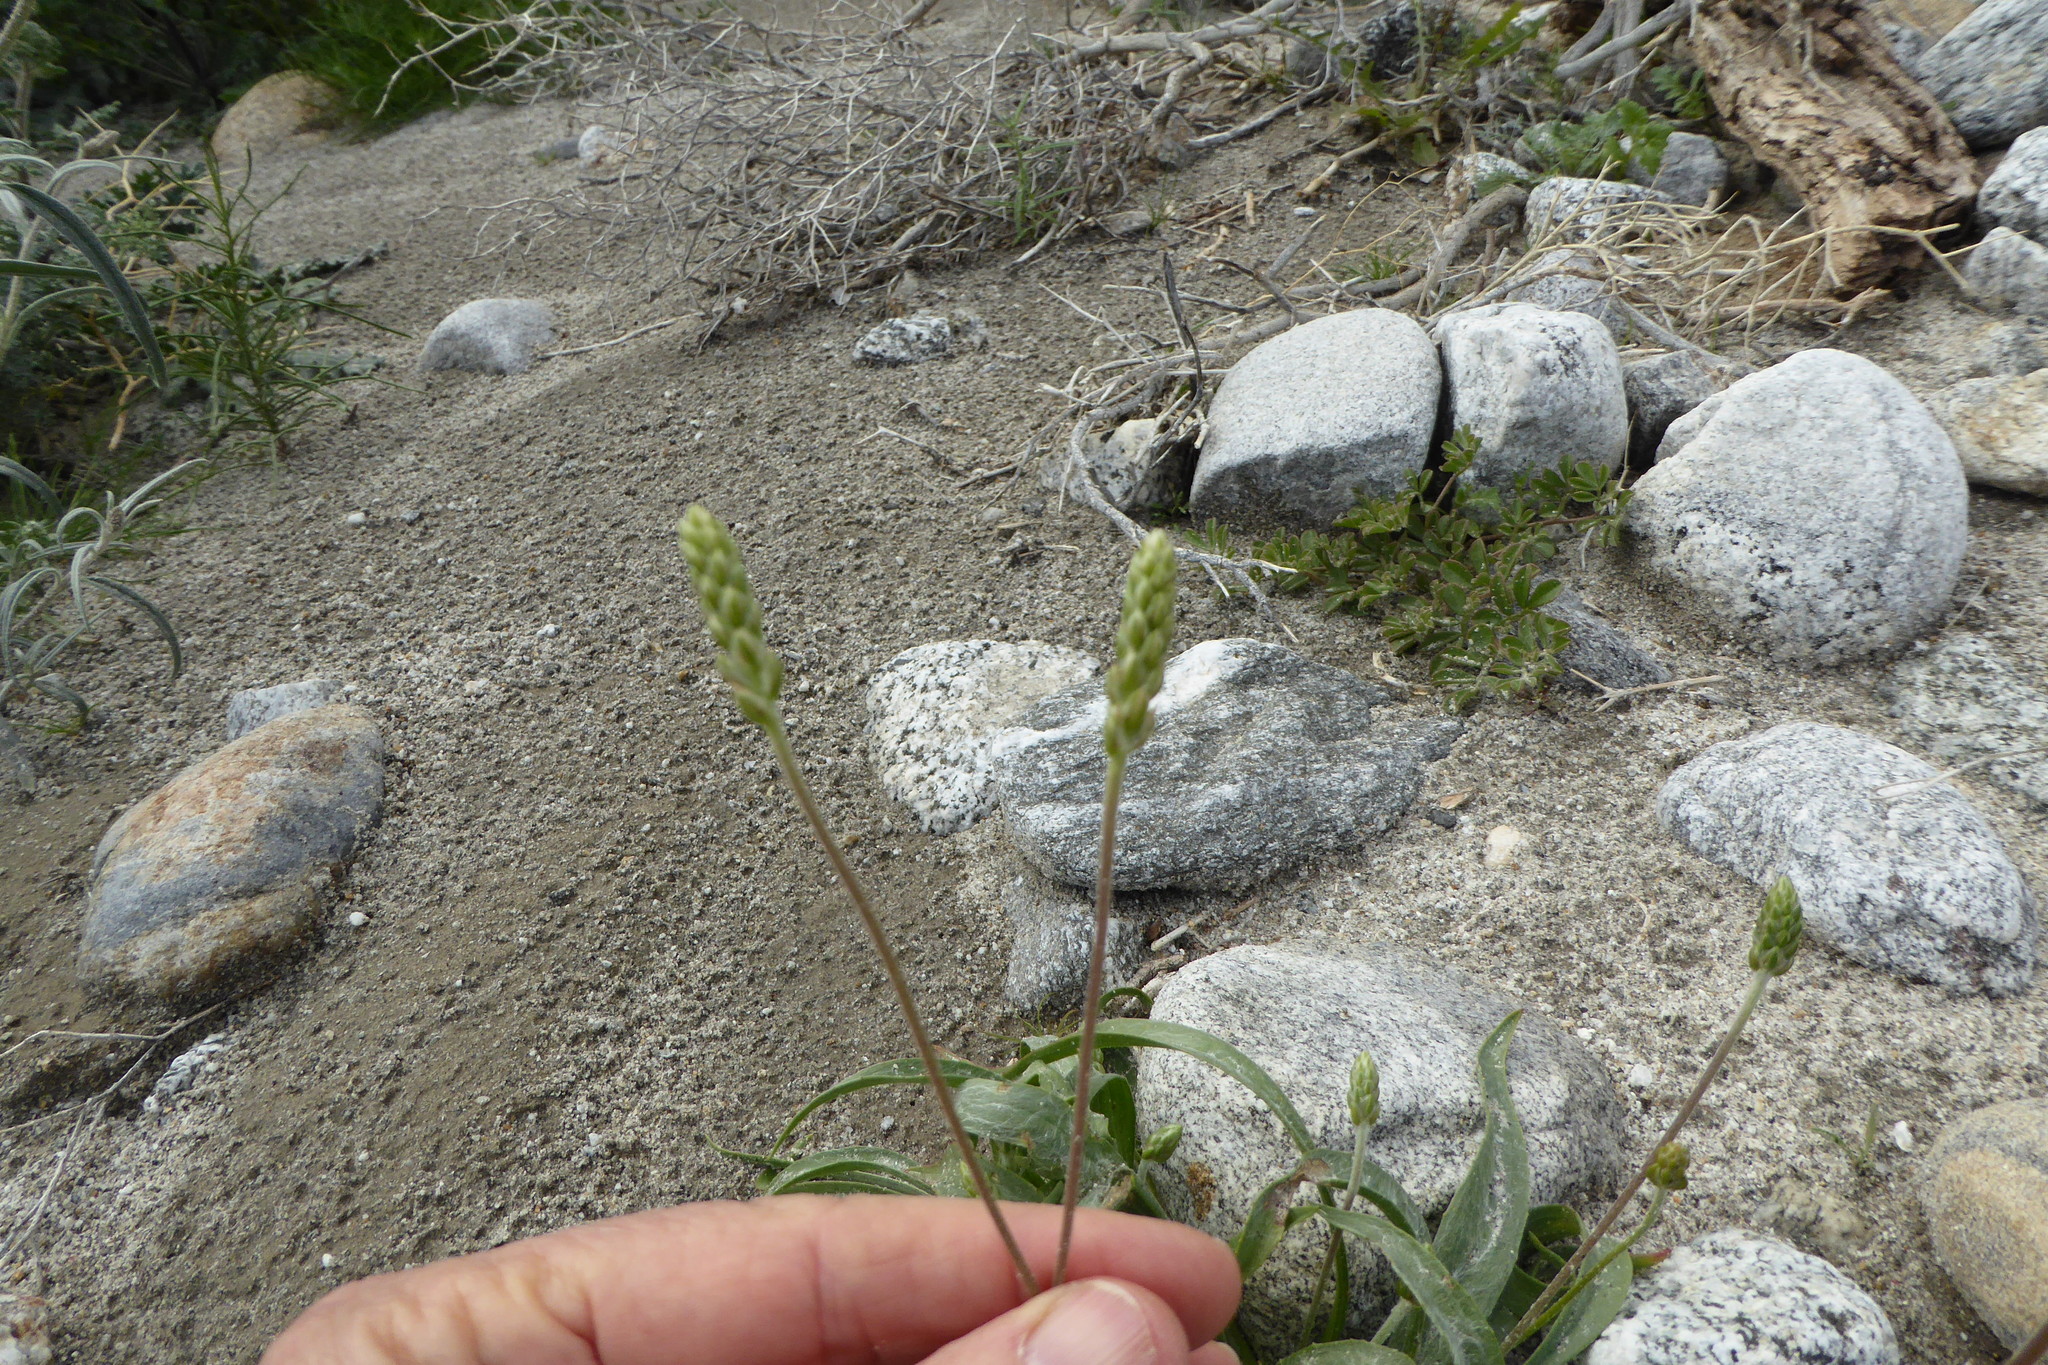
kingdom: Plantae
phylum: Tracheophyta
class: Magnoliopsida
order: Lamiales
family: Plantaginaceae
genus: Plantago
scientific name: Plantago ovata
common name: Blond plantain
